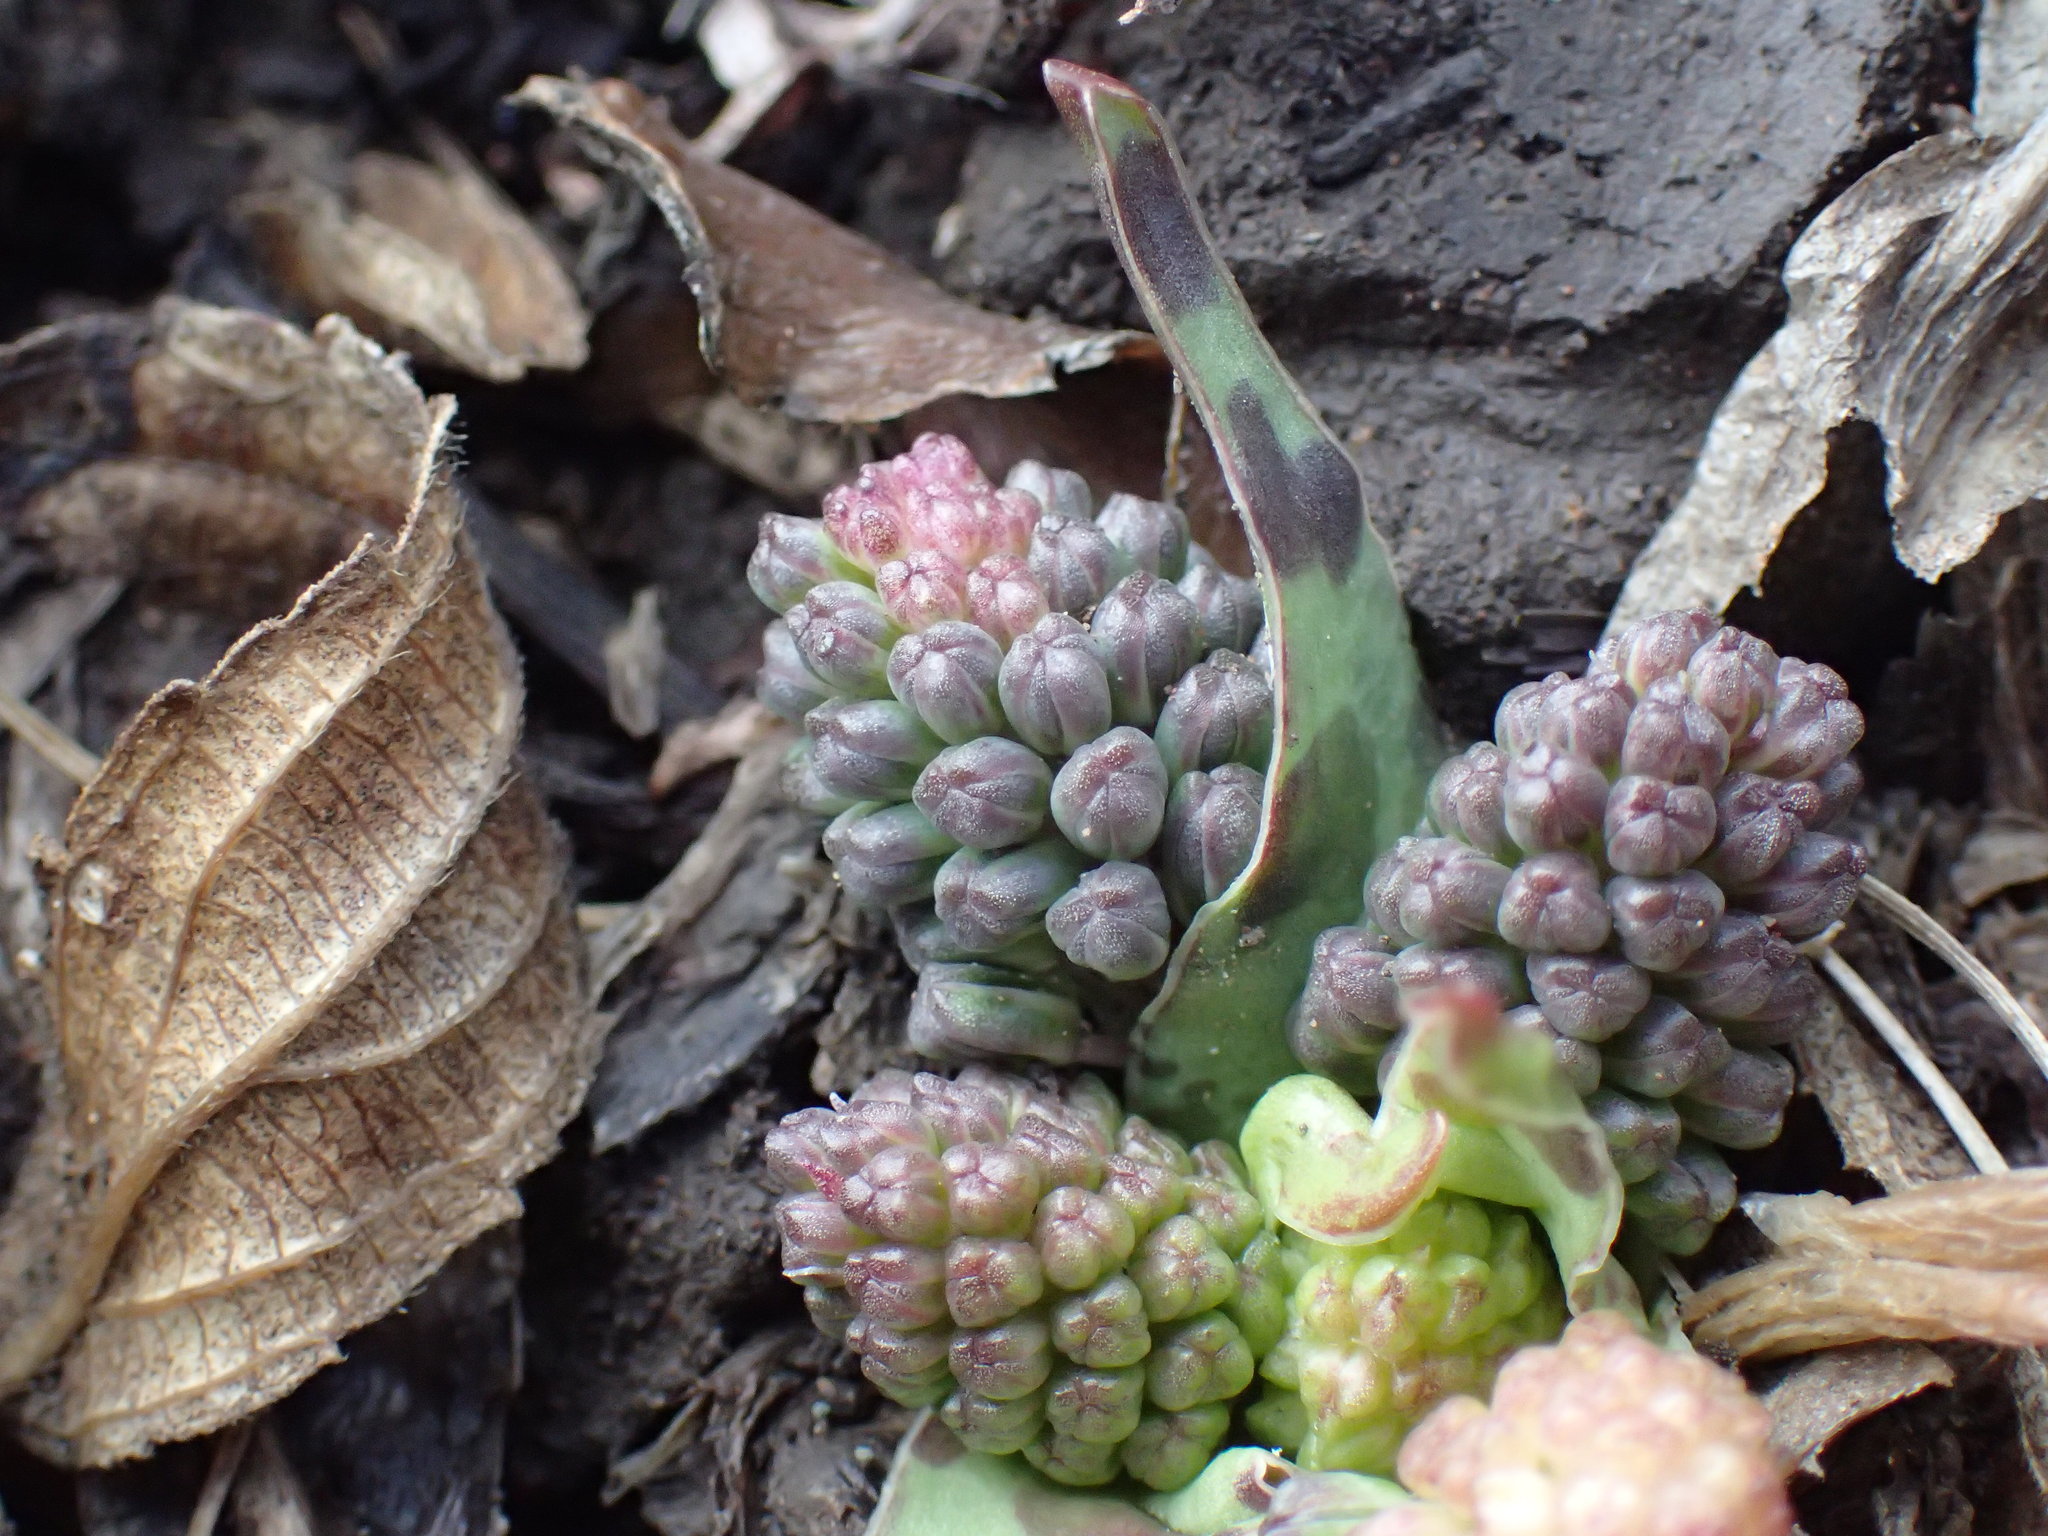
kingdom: Plantae
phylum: Tracheophyta
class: Liliopsida
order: Asparagales
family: Asparagaceae
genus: Ledebouria
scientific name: Ledebouria ovatifolia
